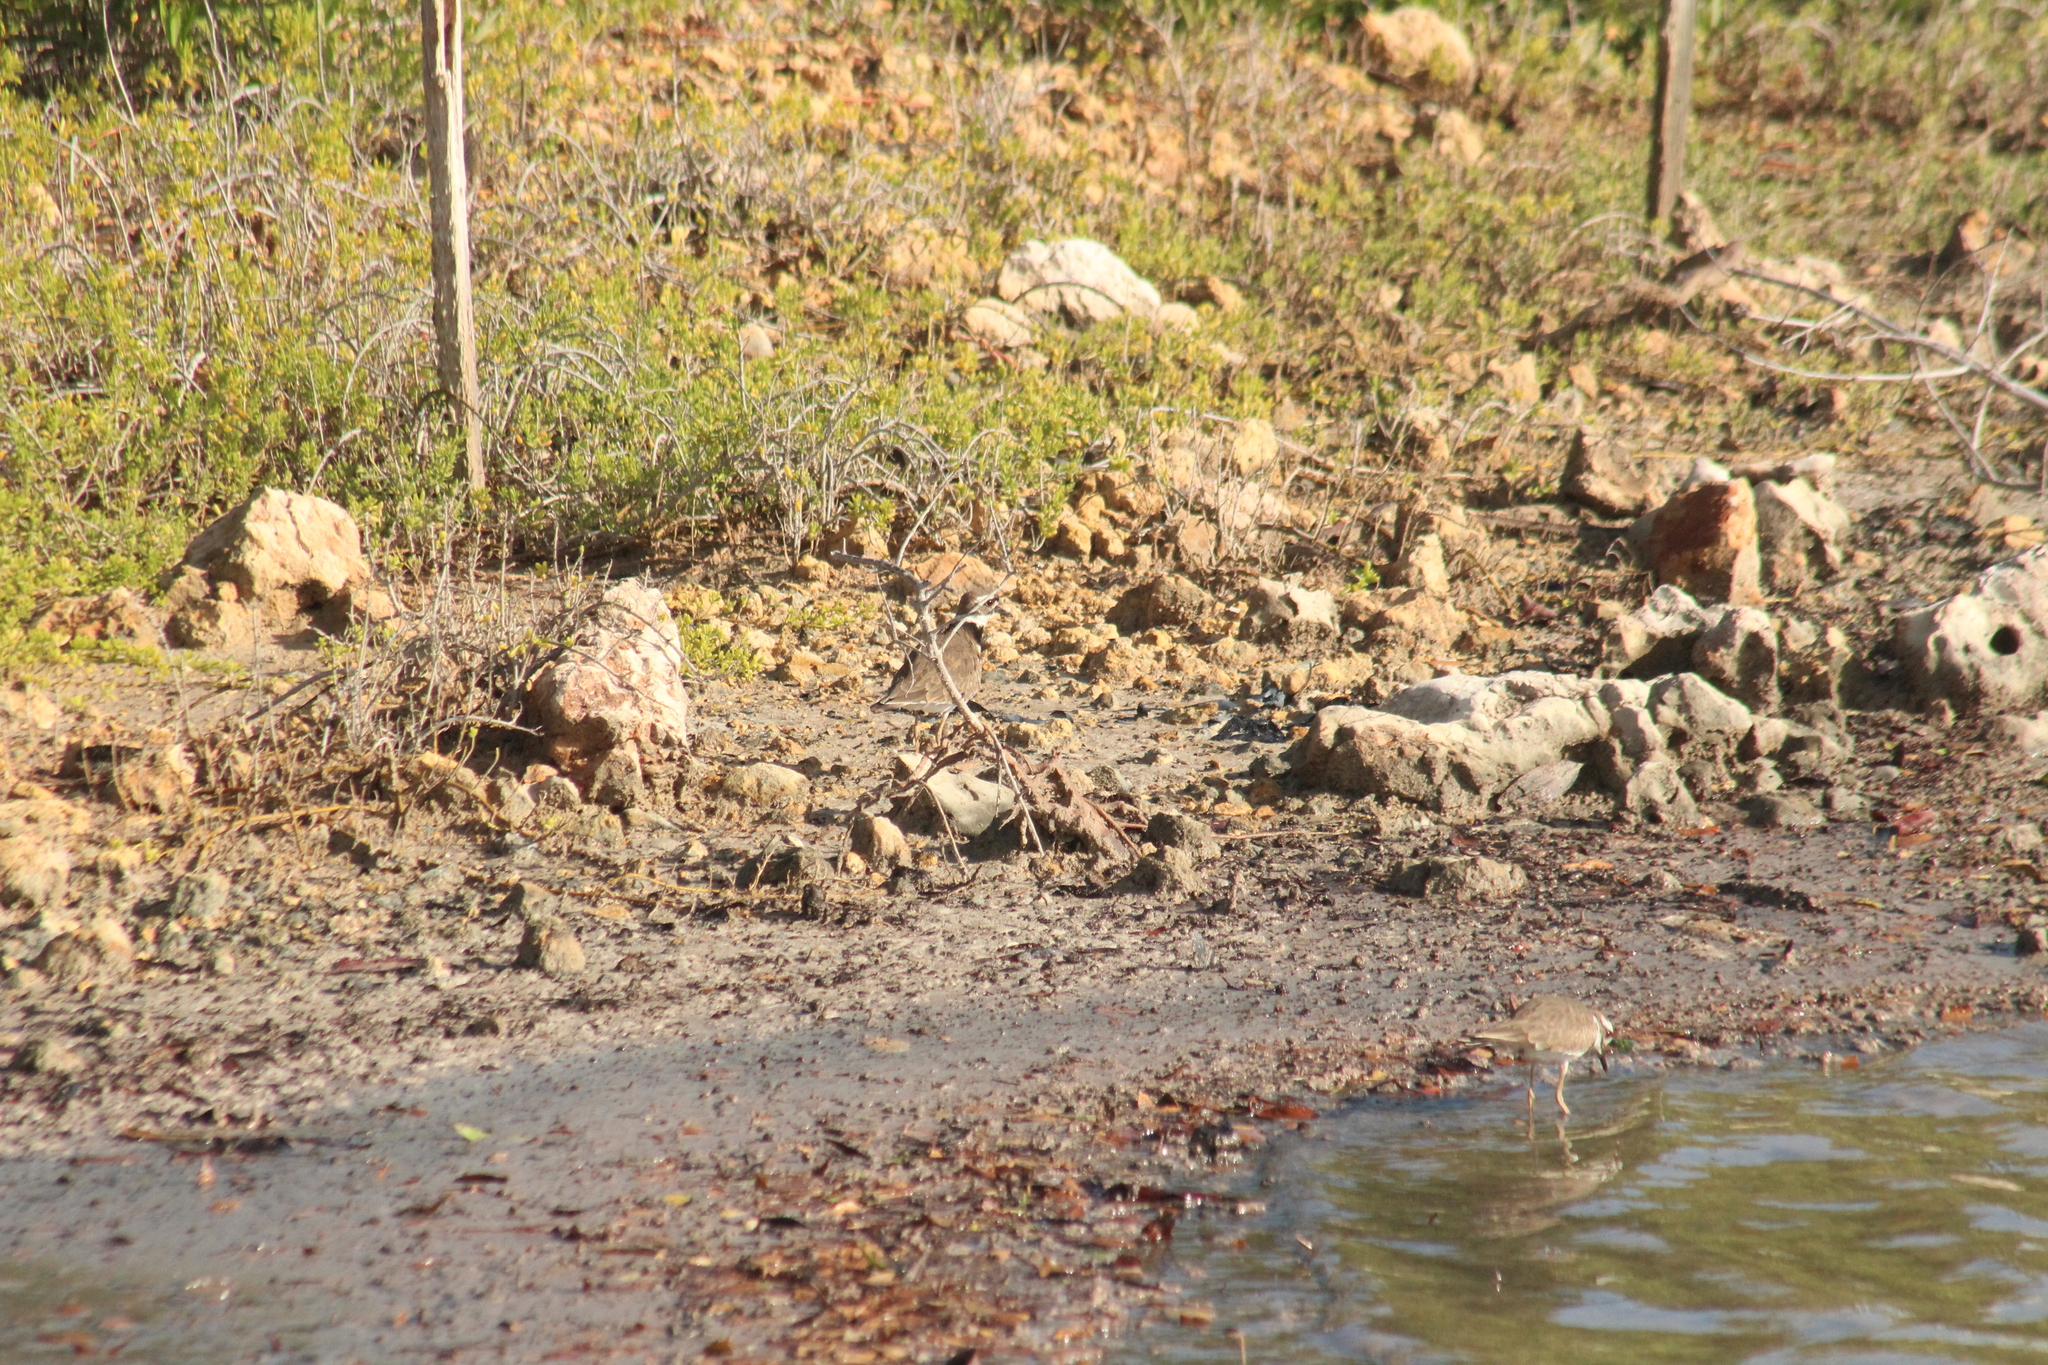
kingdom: Animalia
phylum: Chordata
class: Aves
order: Charadriiformes
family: Charadriidae
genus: Charadrius
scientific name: Charadrius vociferus
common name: Killdeer
